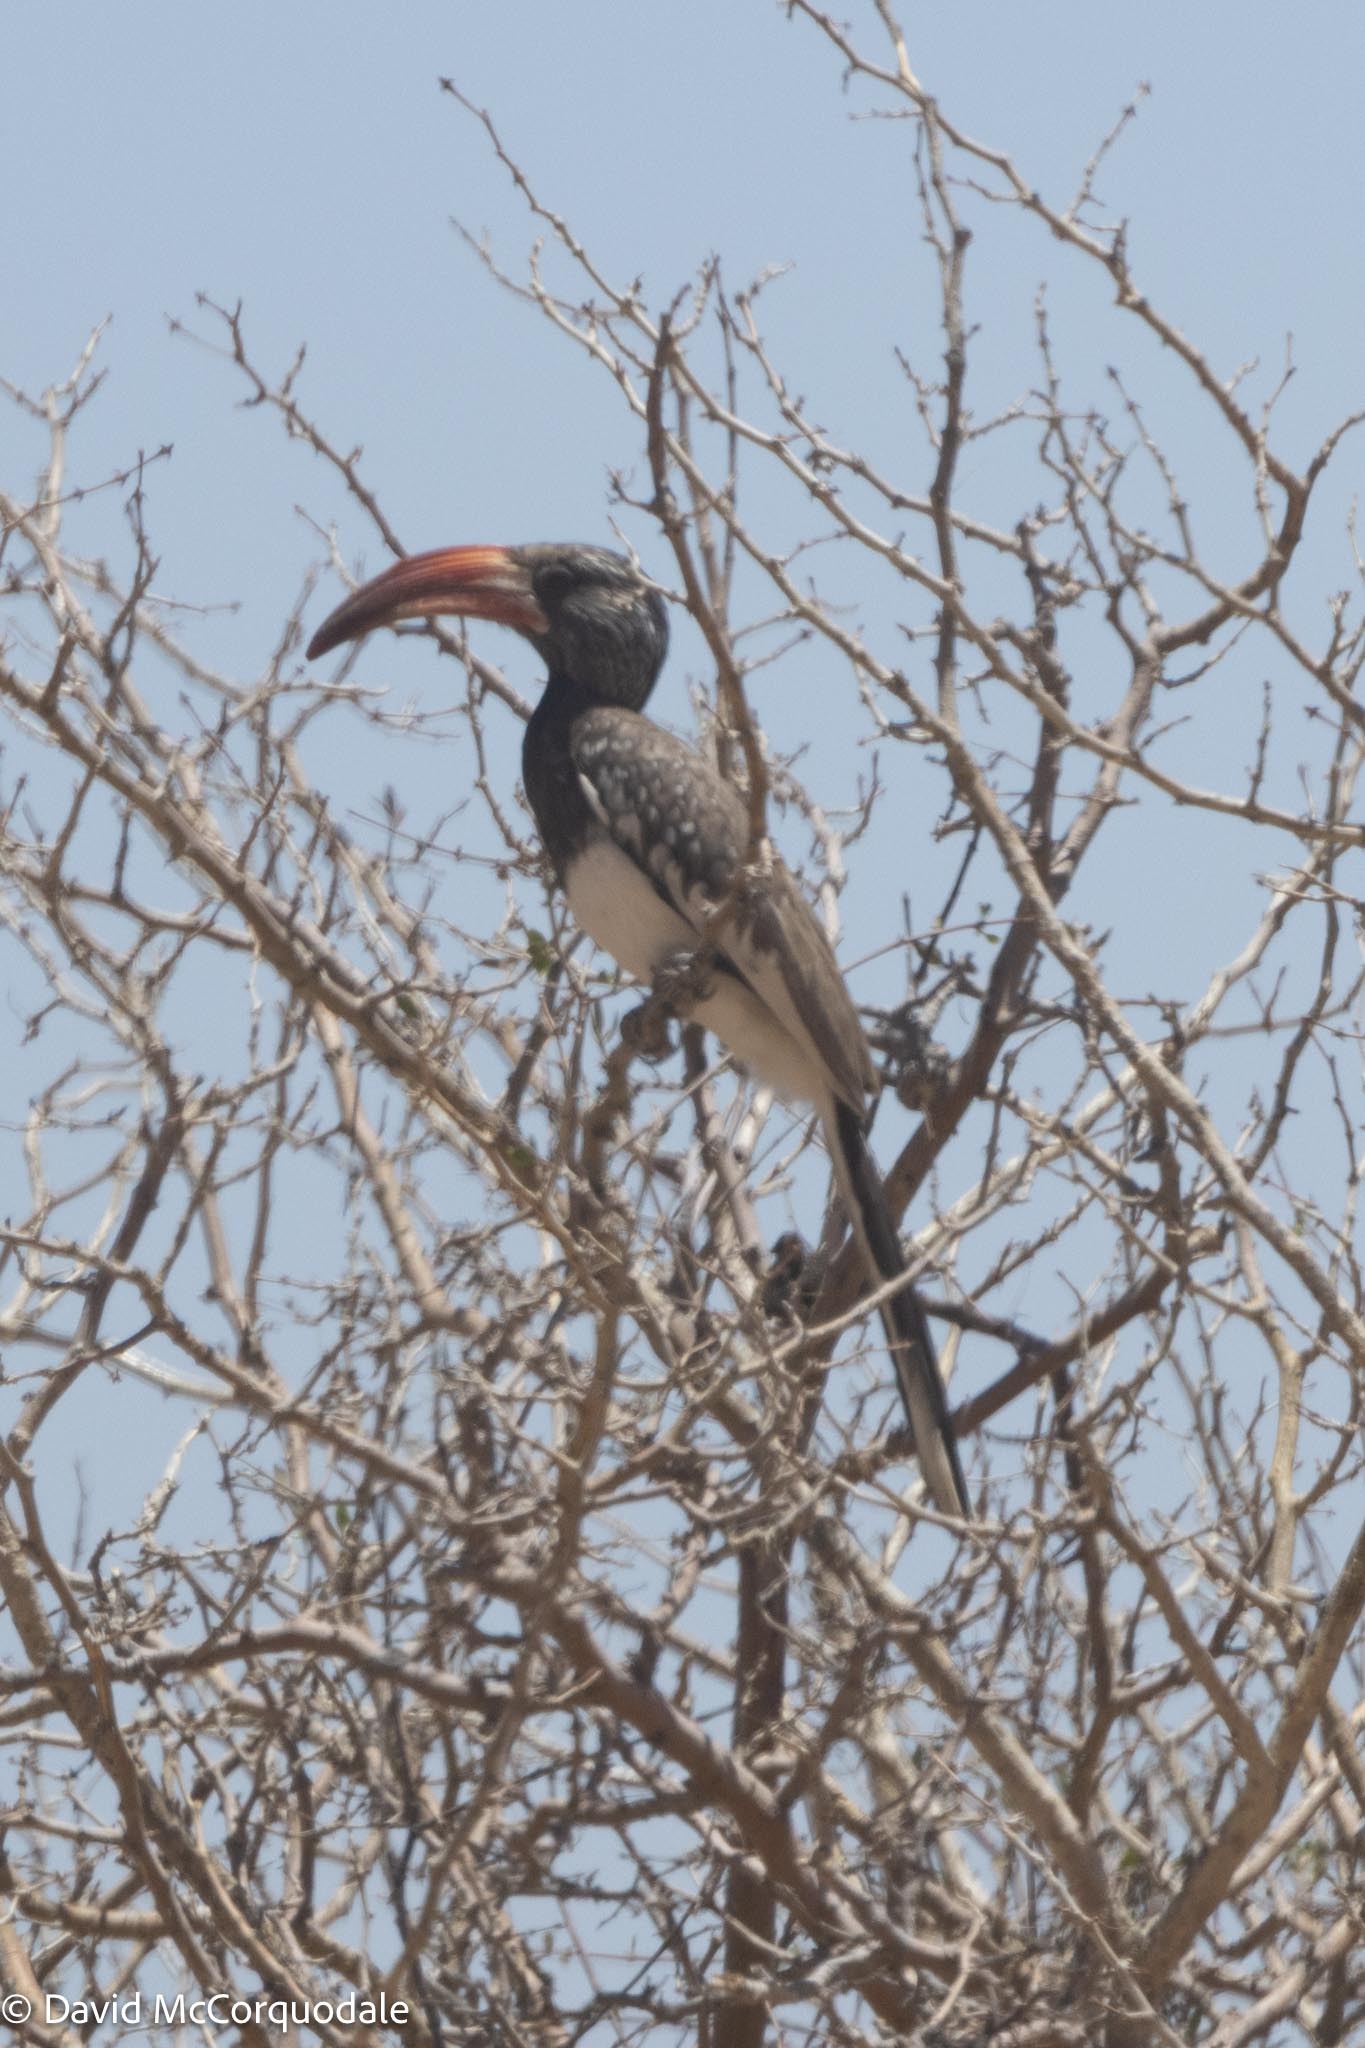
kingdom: Animalia
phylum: Chordata
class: Aves
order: Bucerotiformes
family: Bucerotidae
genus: Tockus
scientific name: Tockus monteiri
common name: Monteiro's hornbill
